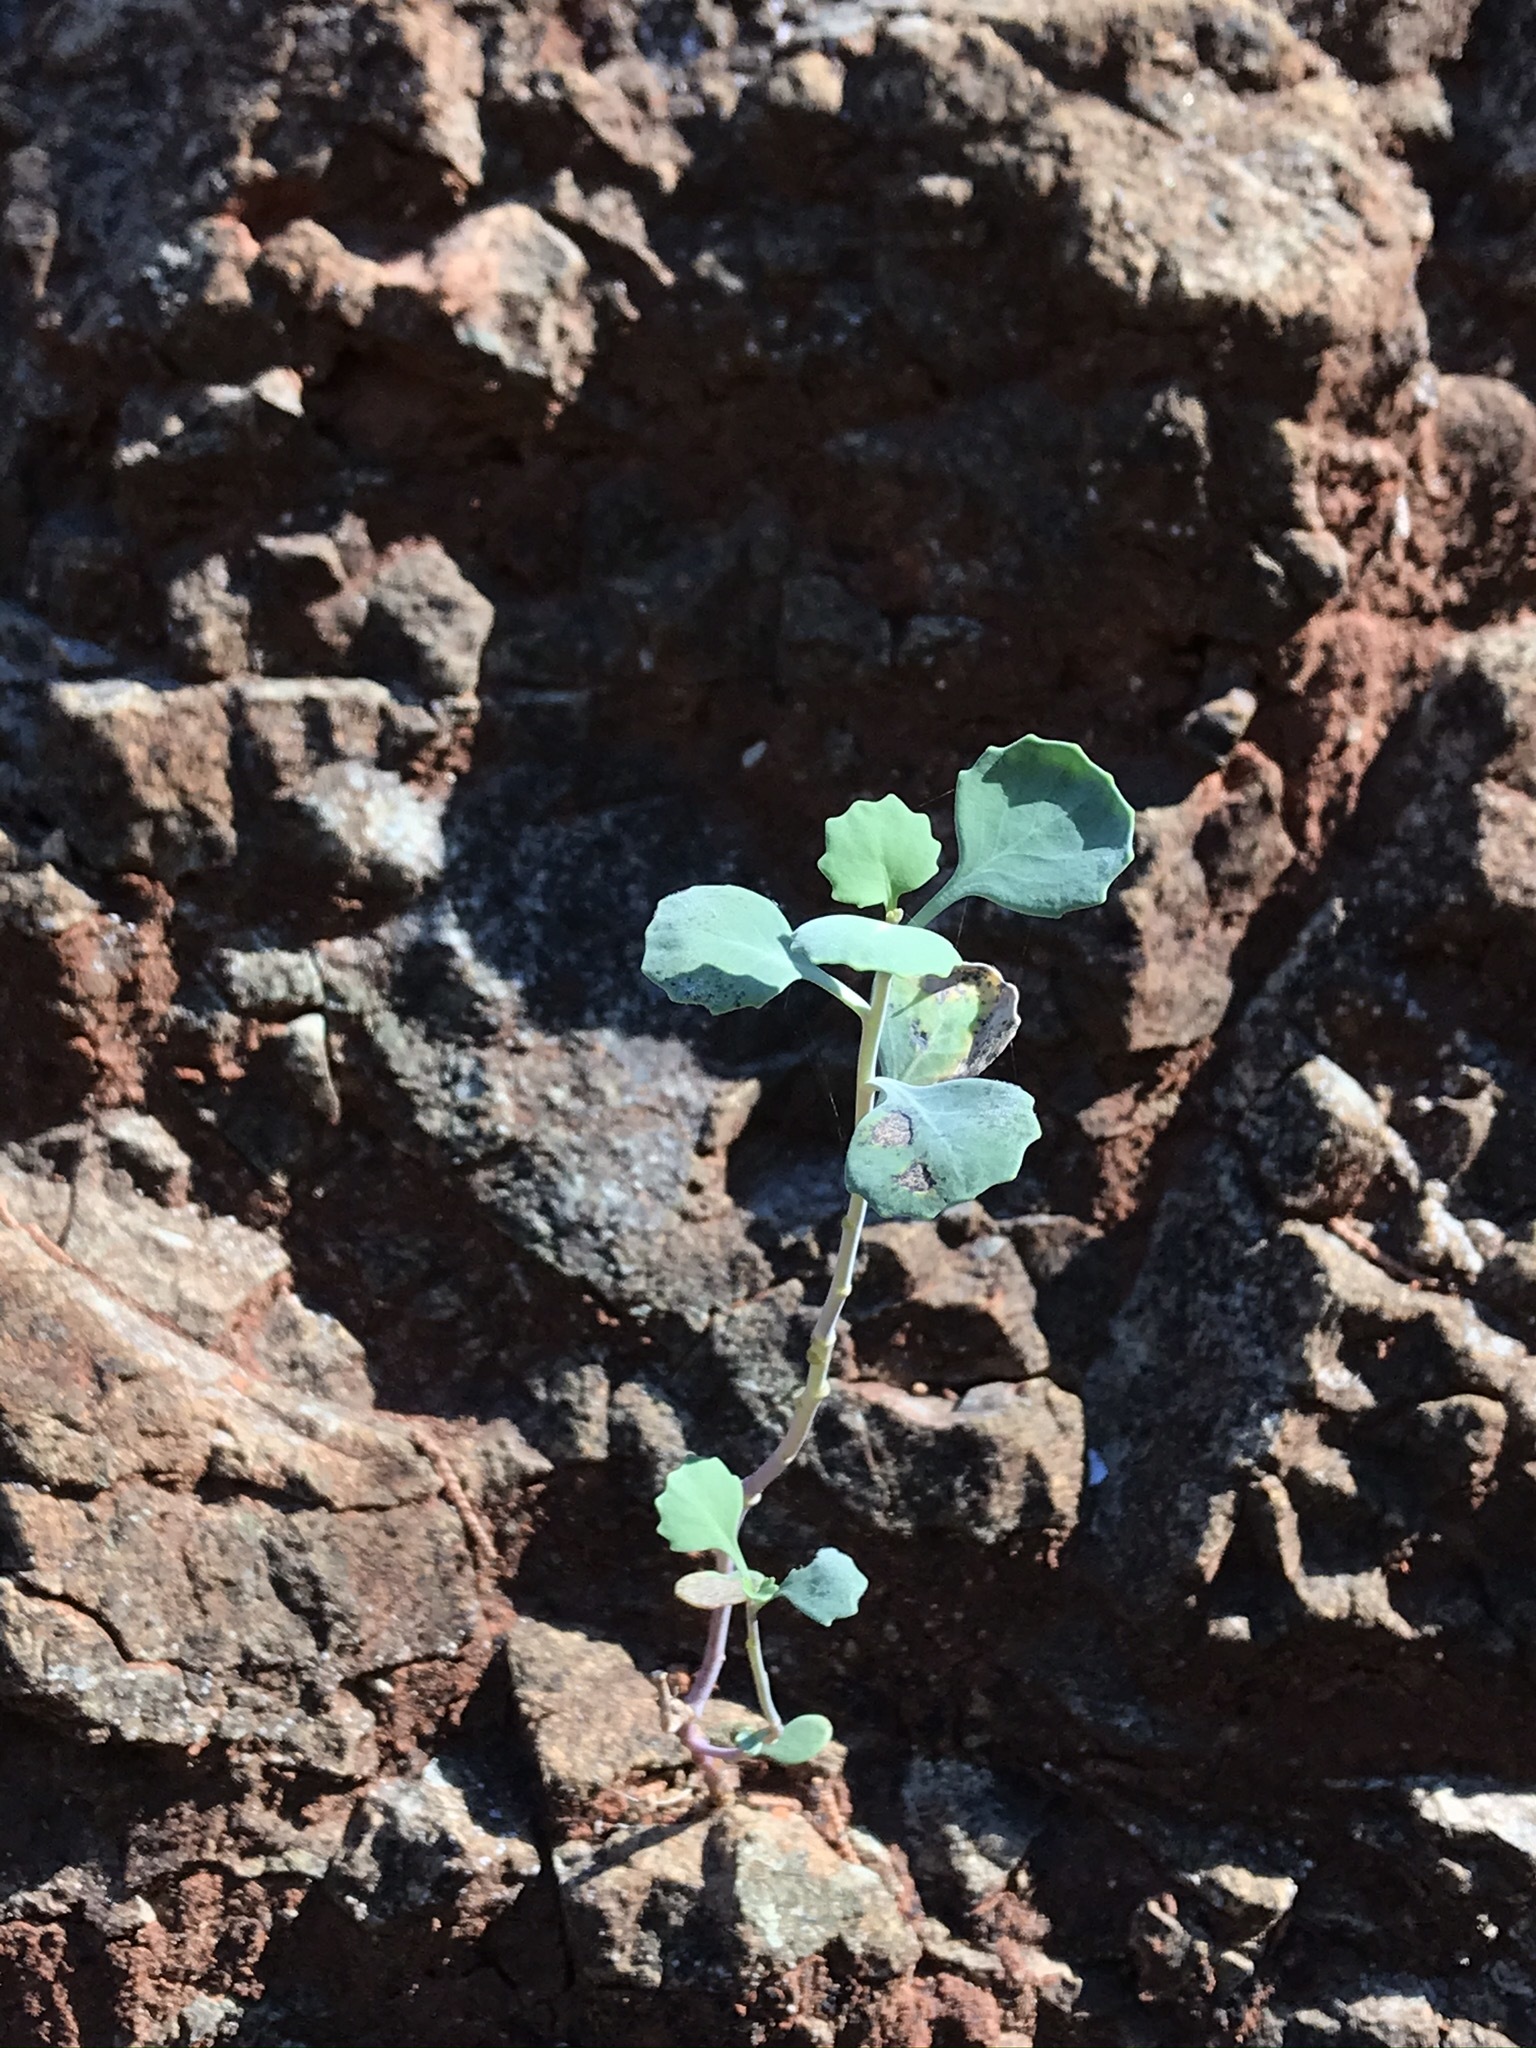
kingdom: Plantae
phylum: Tracheophyta
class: Magnoliopsida
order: Brassicales
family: Brassicaceae
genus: Streptanthus
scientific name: Streptanthus morrisonii
